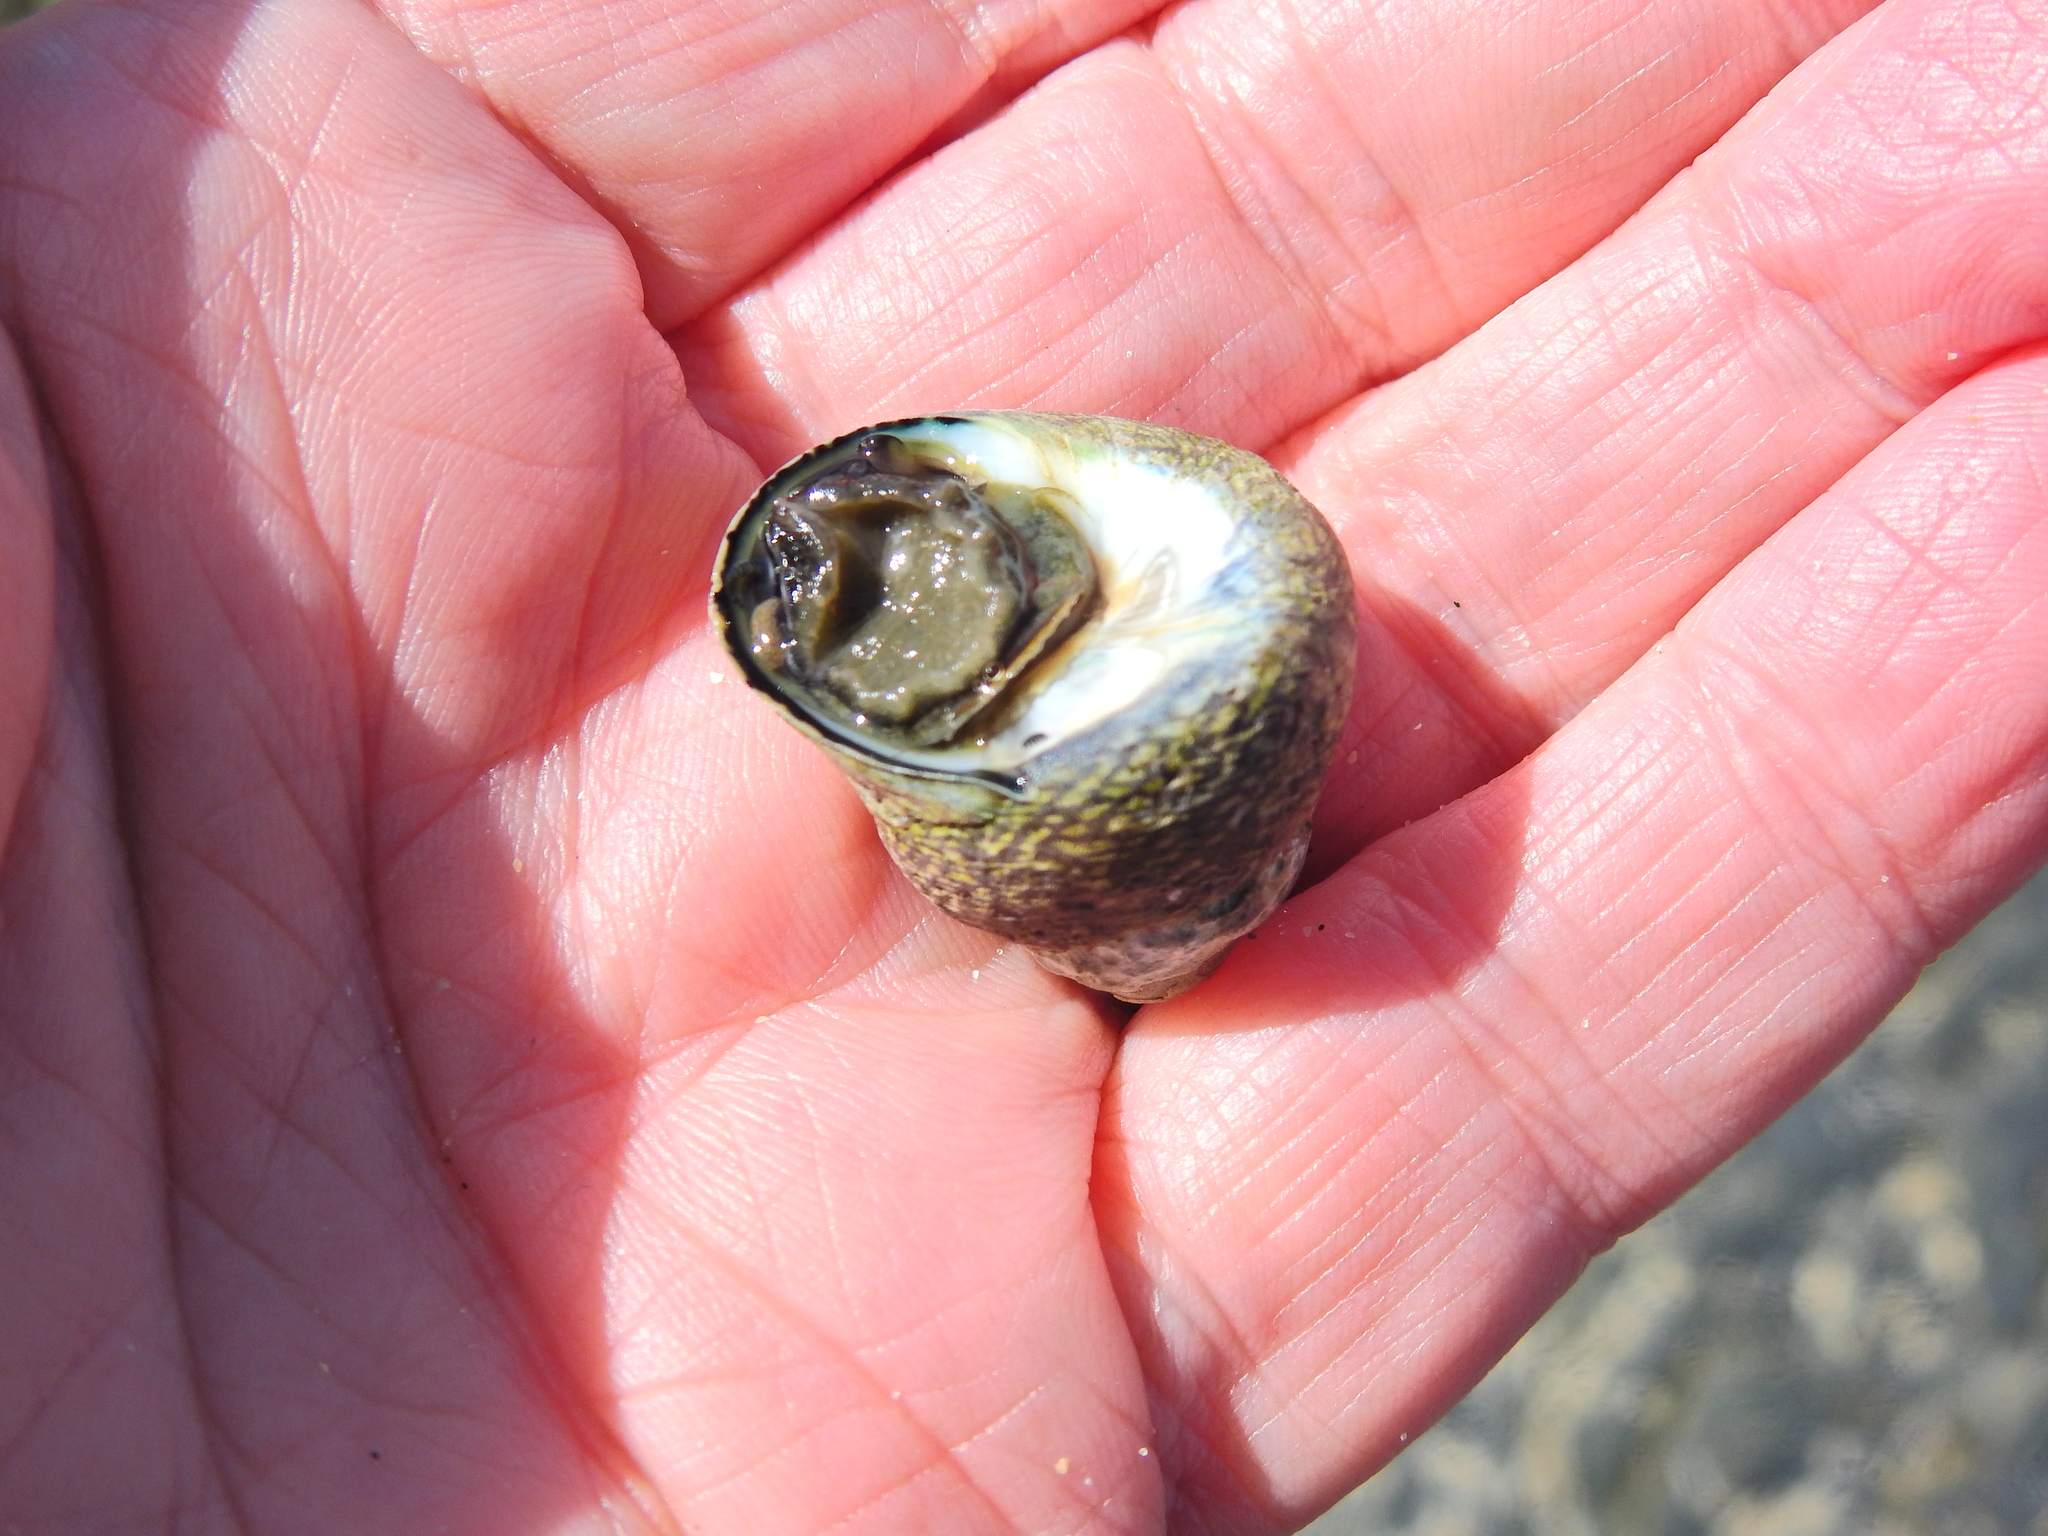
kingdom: Animalia
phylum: Mollusca
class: Gastropoda
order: Trochida
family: Trochidae
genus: Phorcus
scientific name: Phorcus lineatus
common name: Toothed top shell
